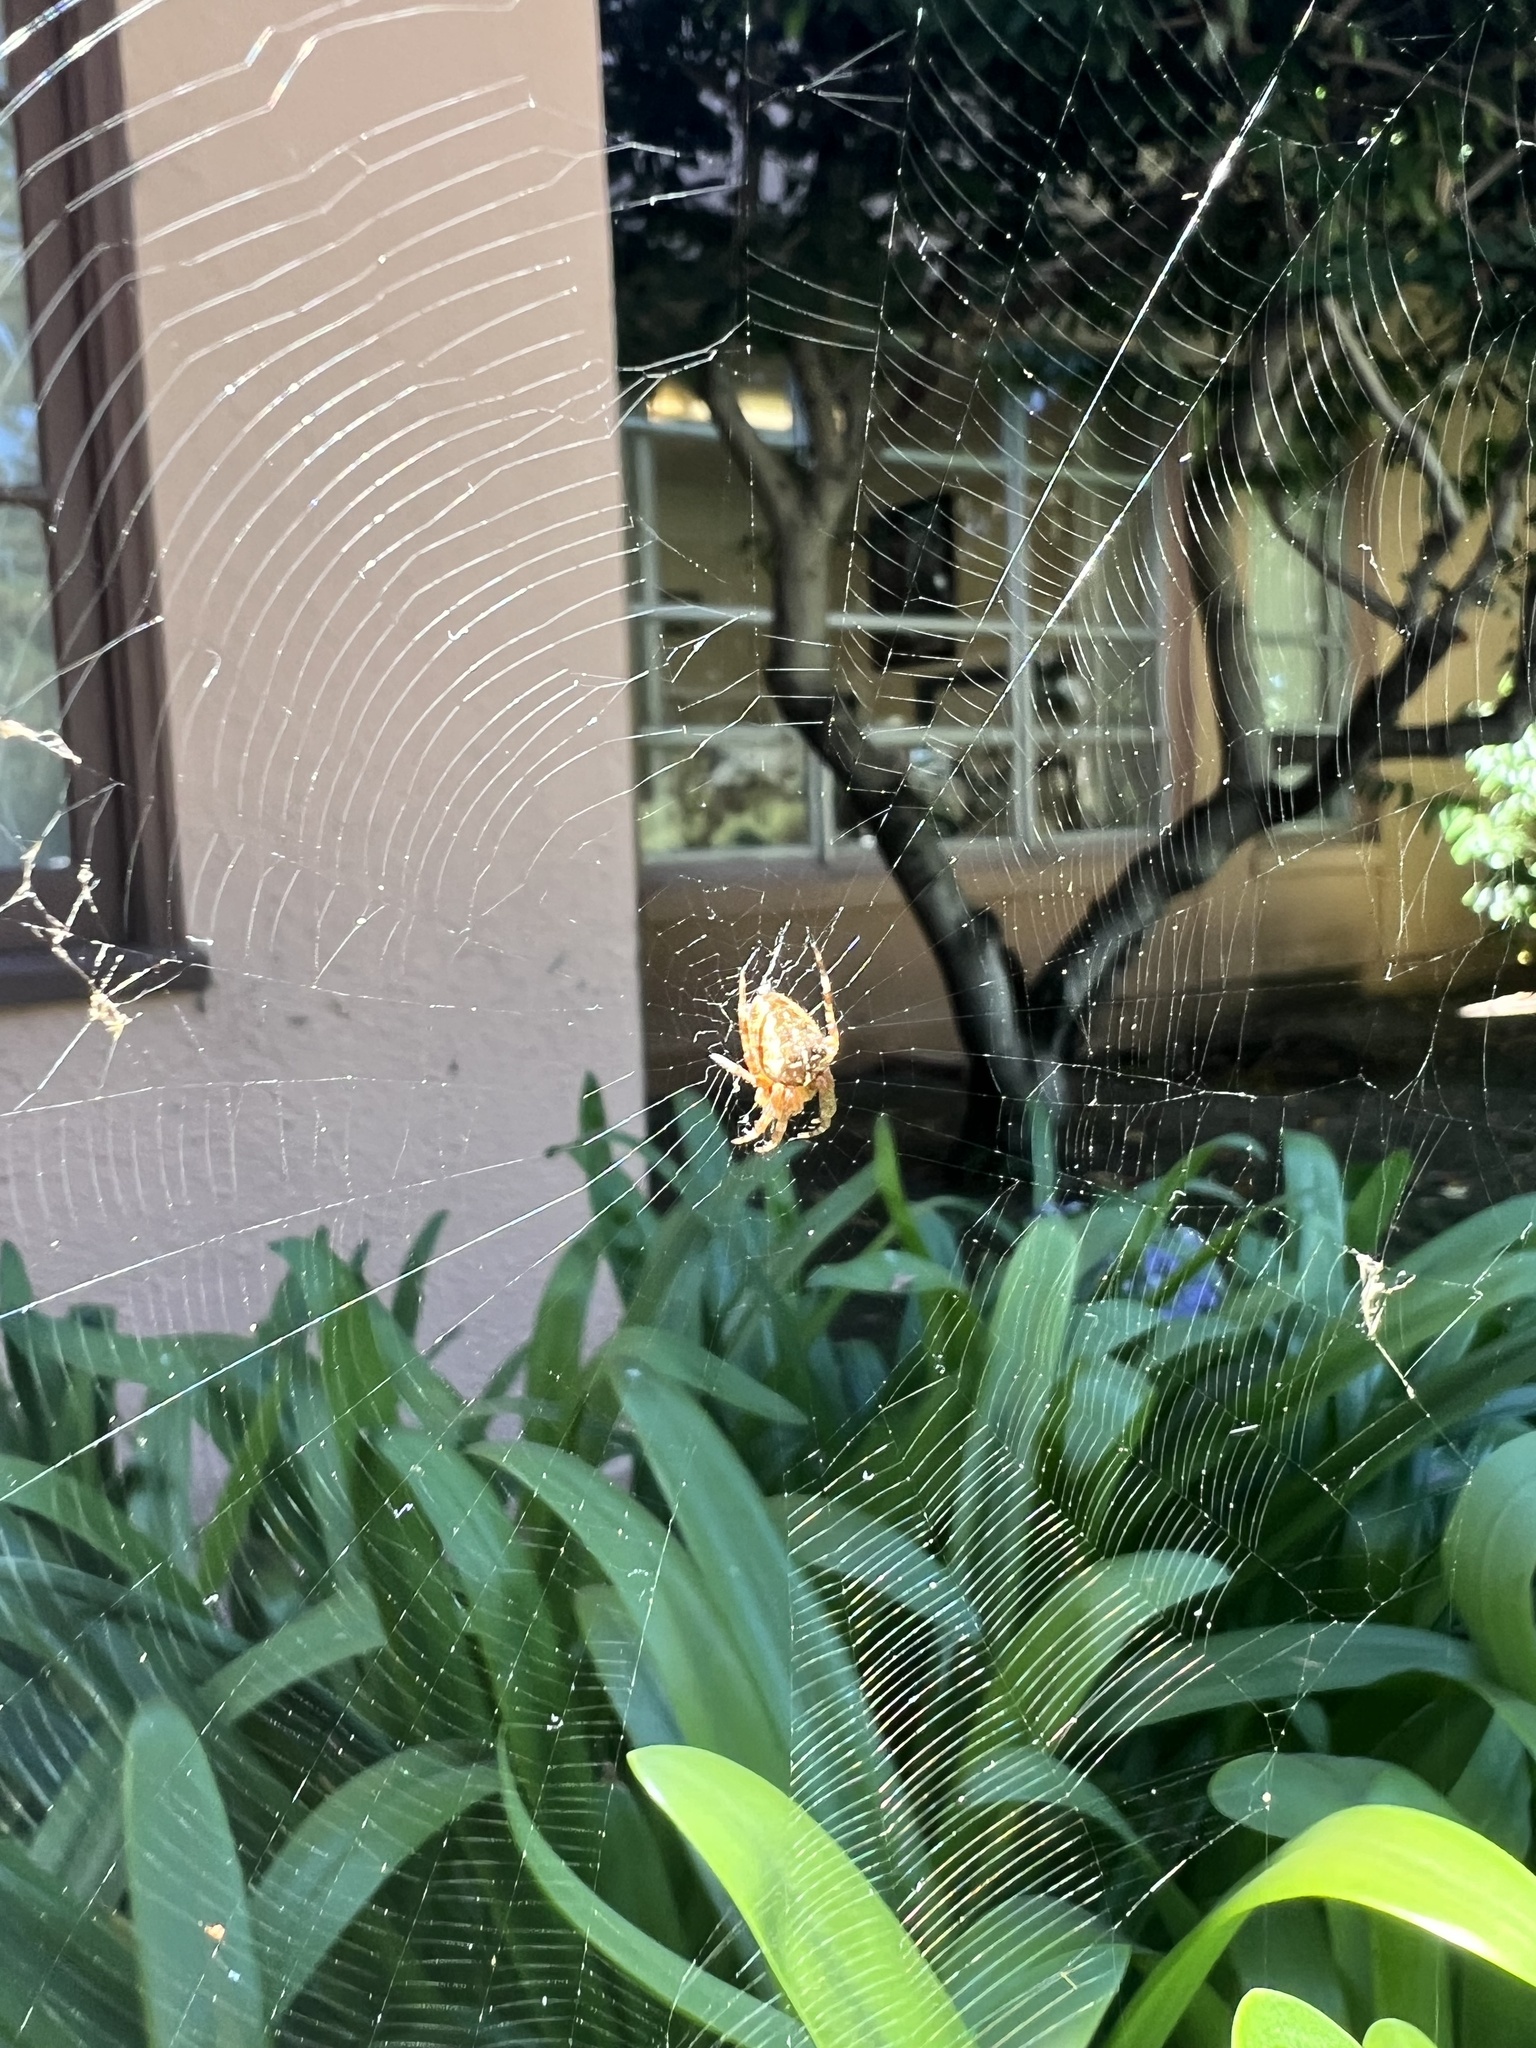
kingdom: Animalia
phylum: Arthropoda
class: Arachnida
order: Araneae
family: Araneidae
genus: Araneus
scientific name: Araneus diadematus
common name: Cross orbweaver
